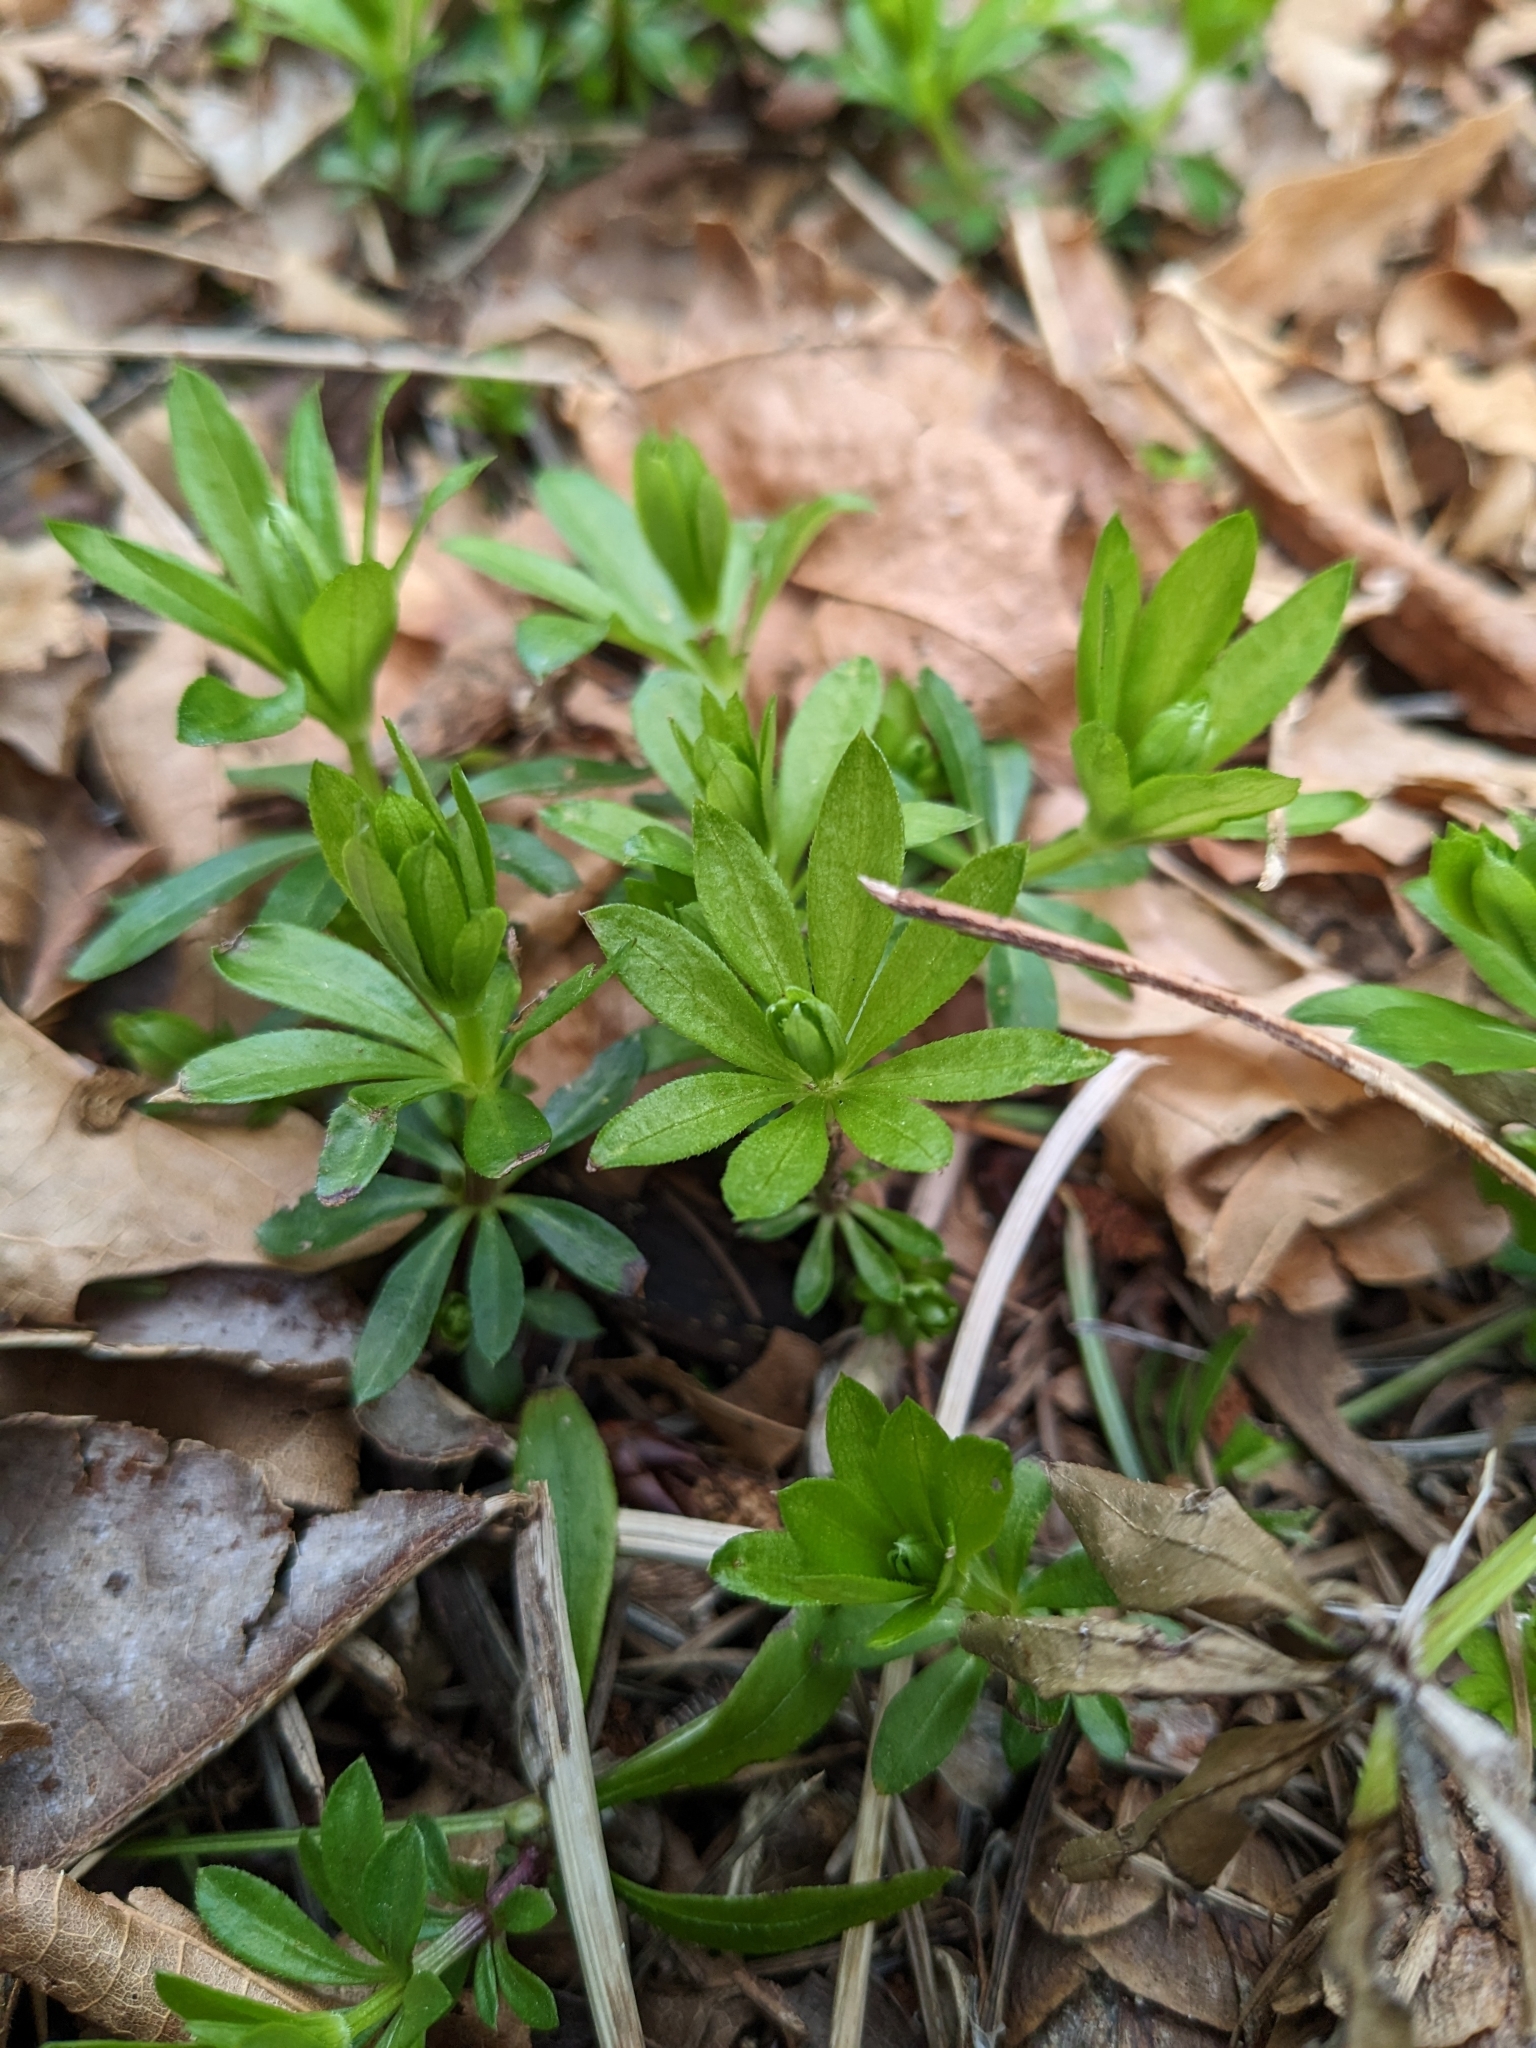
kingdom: Plantae
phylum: Tracheophyta
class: Magnoliopsida
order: Gentianales
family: Rubiaceae
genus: Galium
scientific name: Galium odoratum
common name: Sweet woodruff
